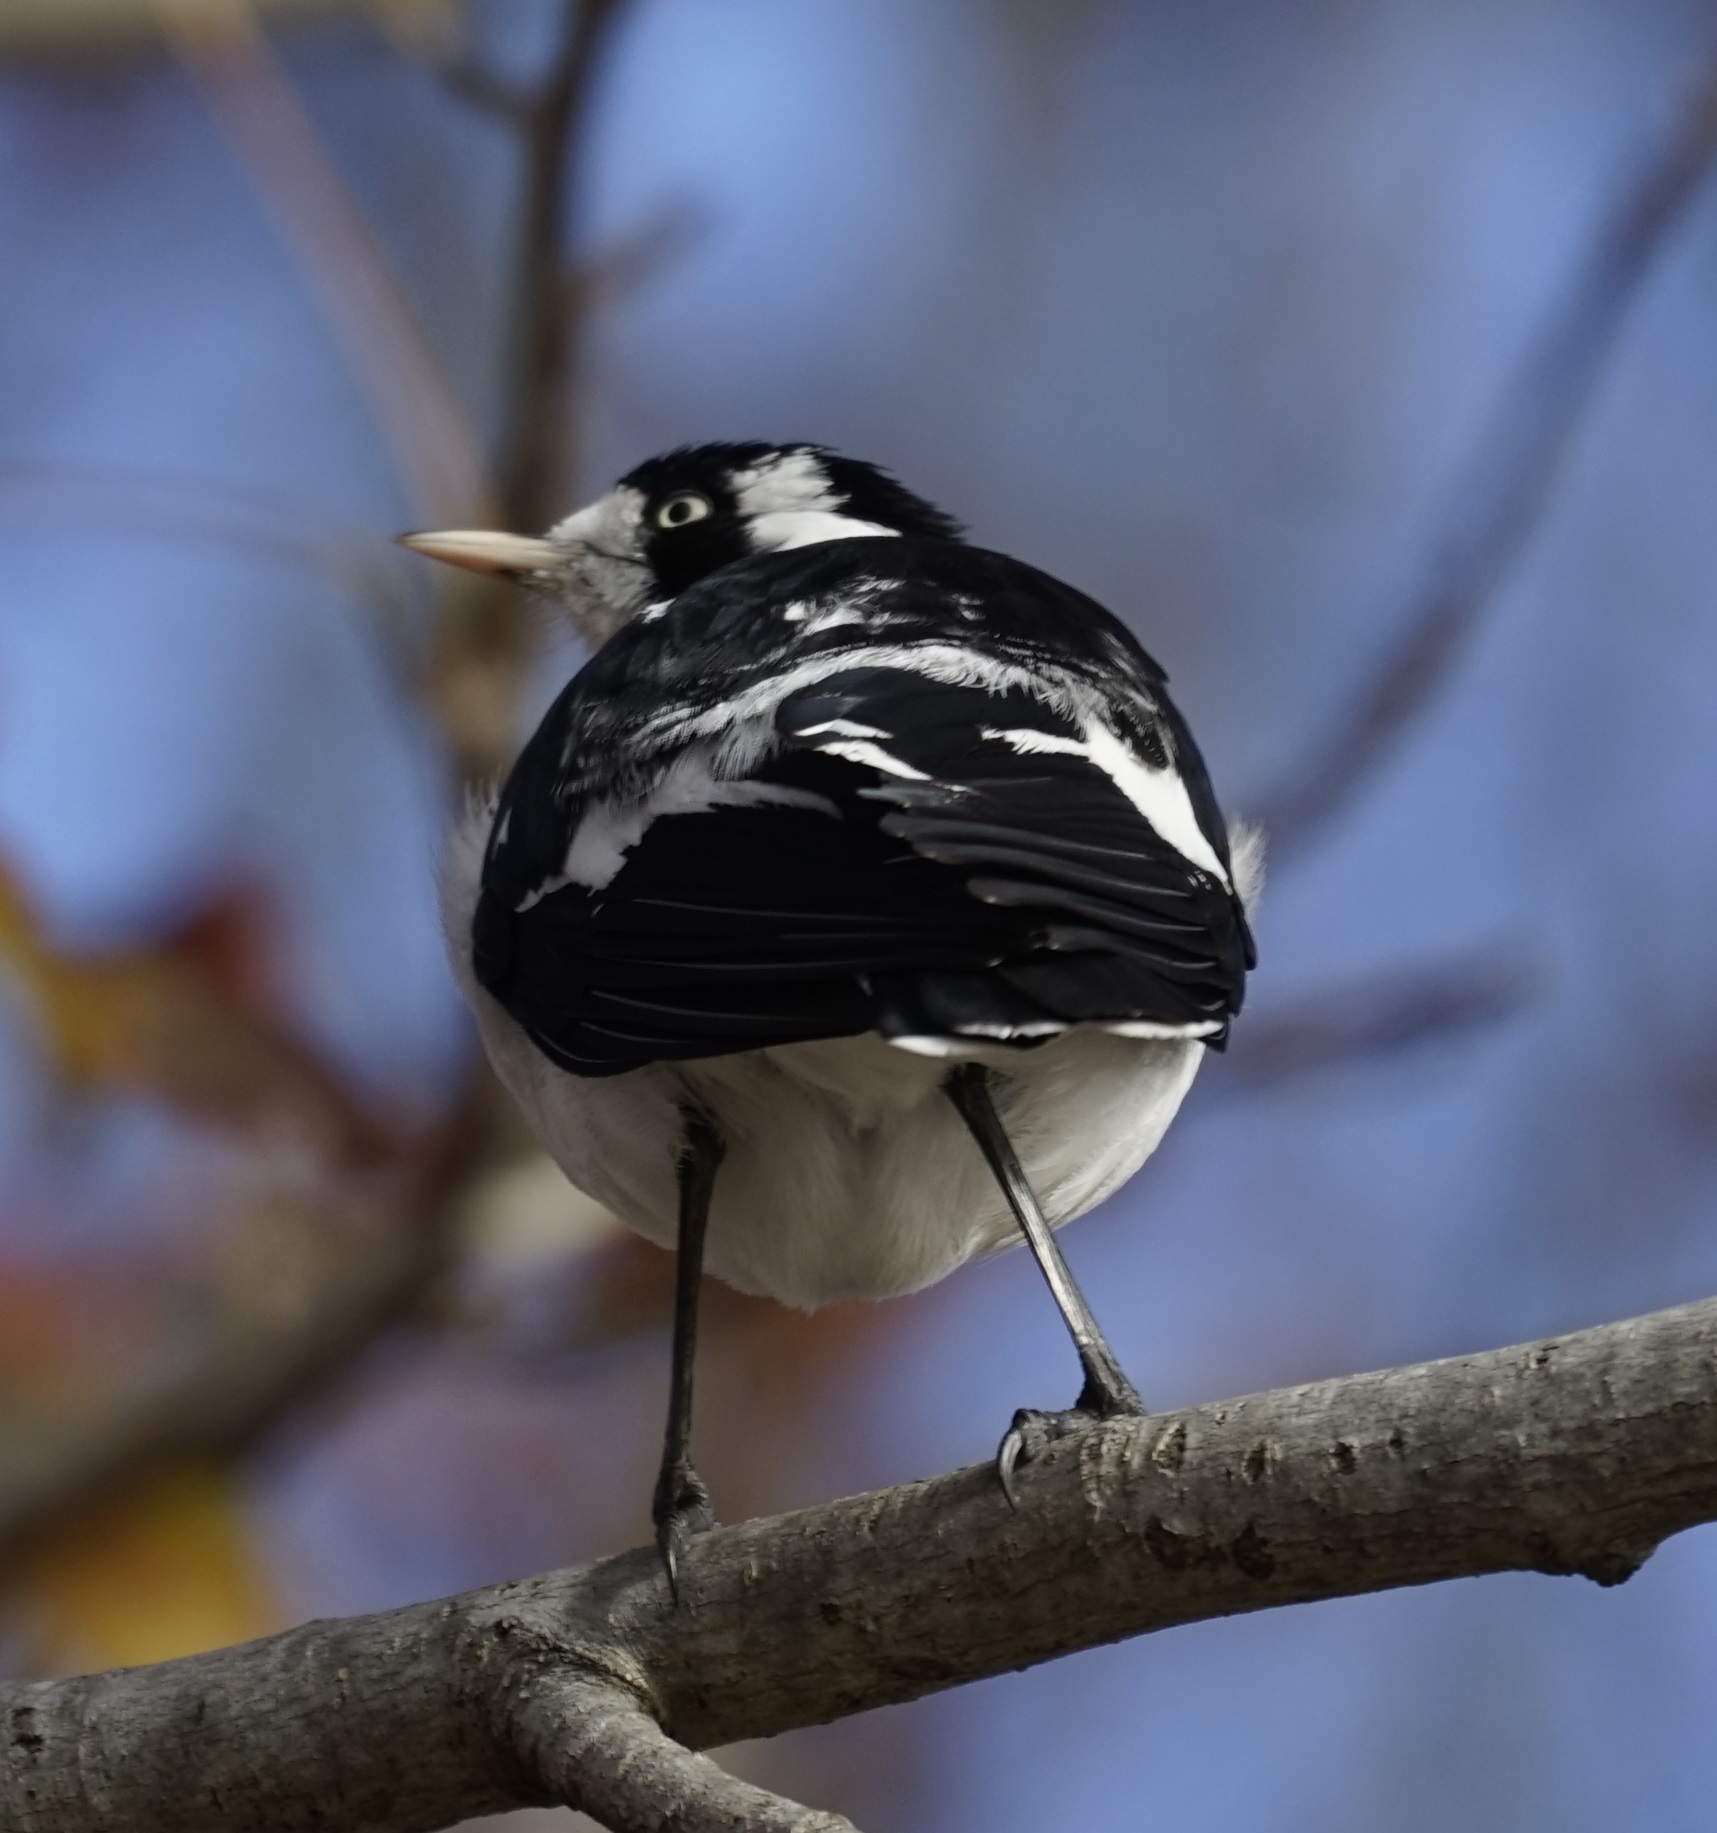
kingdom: Animalia
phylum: Chordata
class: Aves
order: Passeriformes
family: Monarchidae
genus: Grallina
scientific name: Grallina cyanoleuca
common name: Magpie-lark
